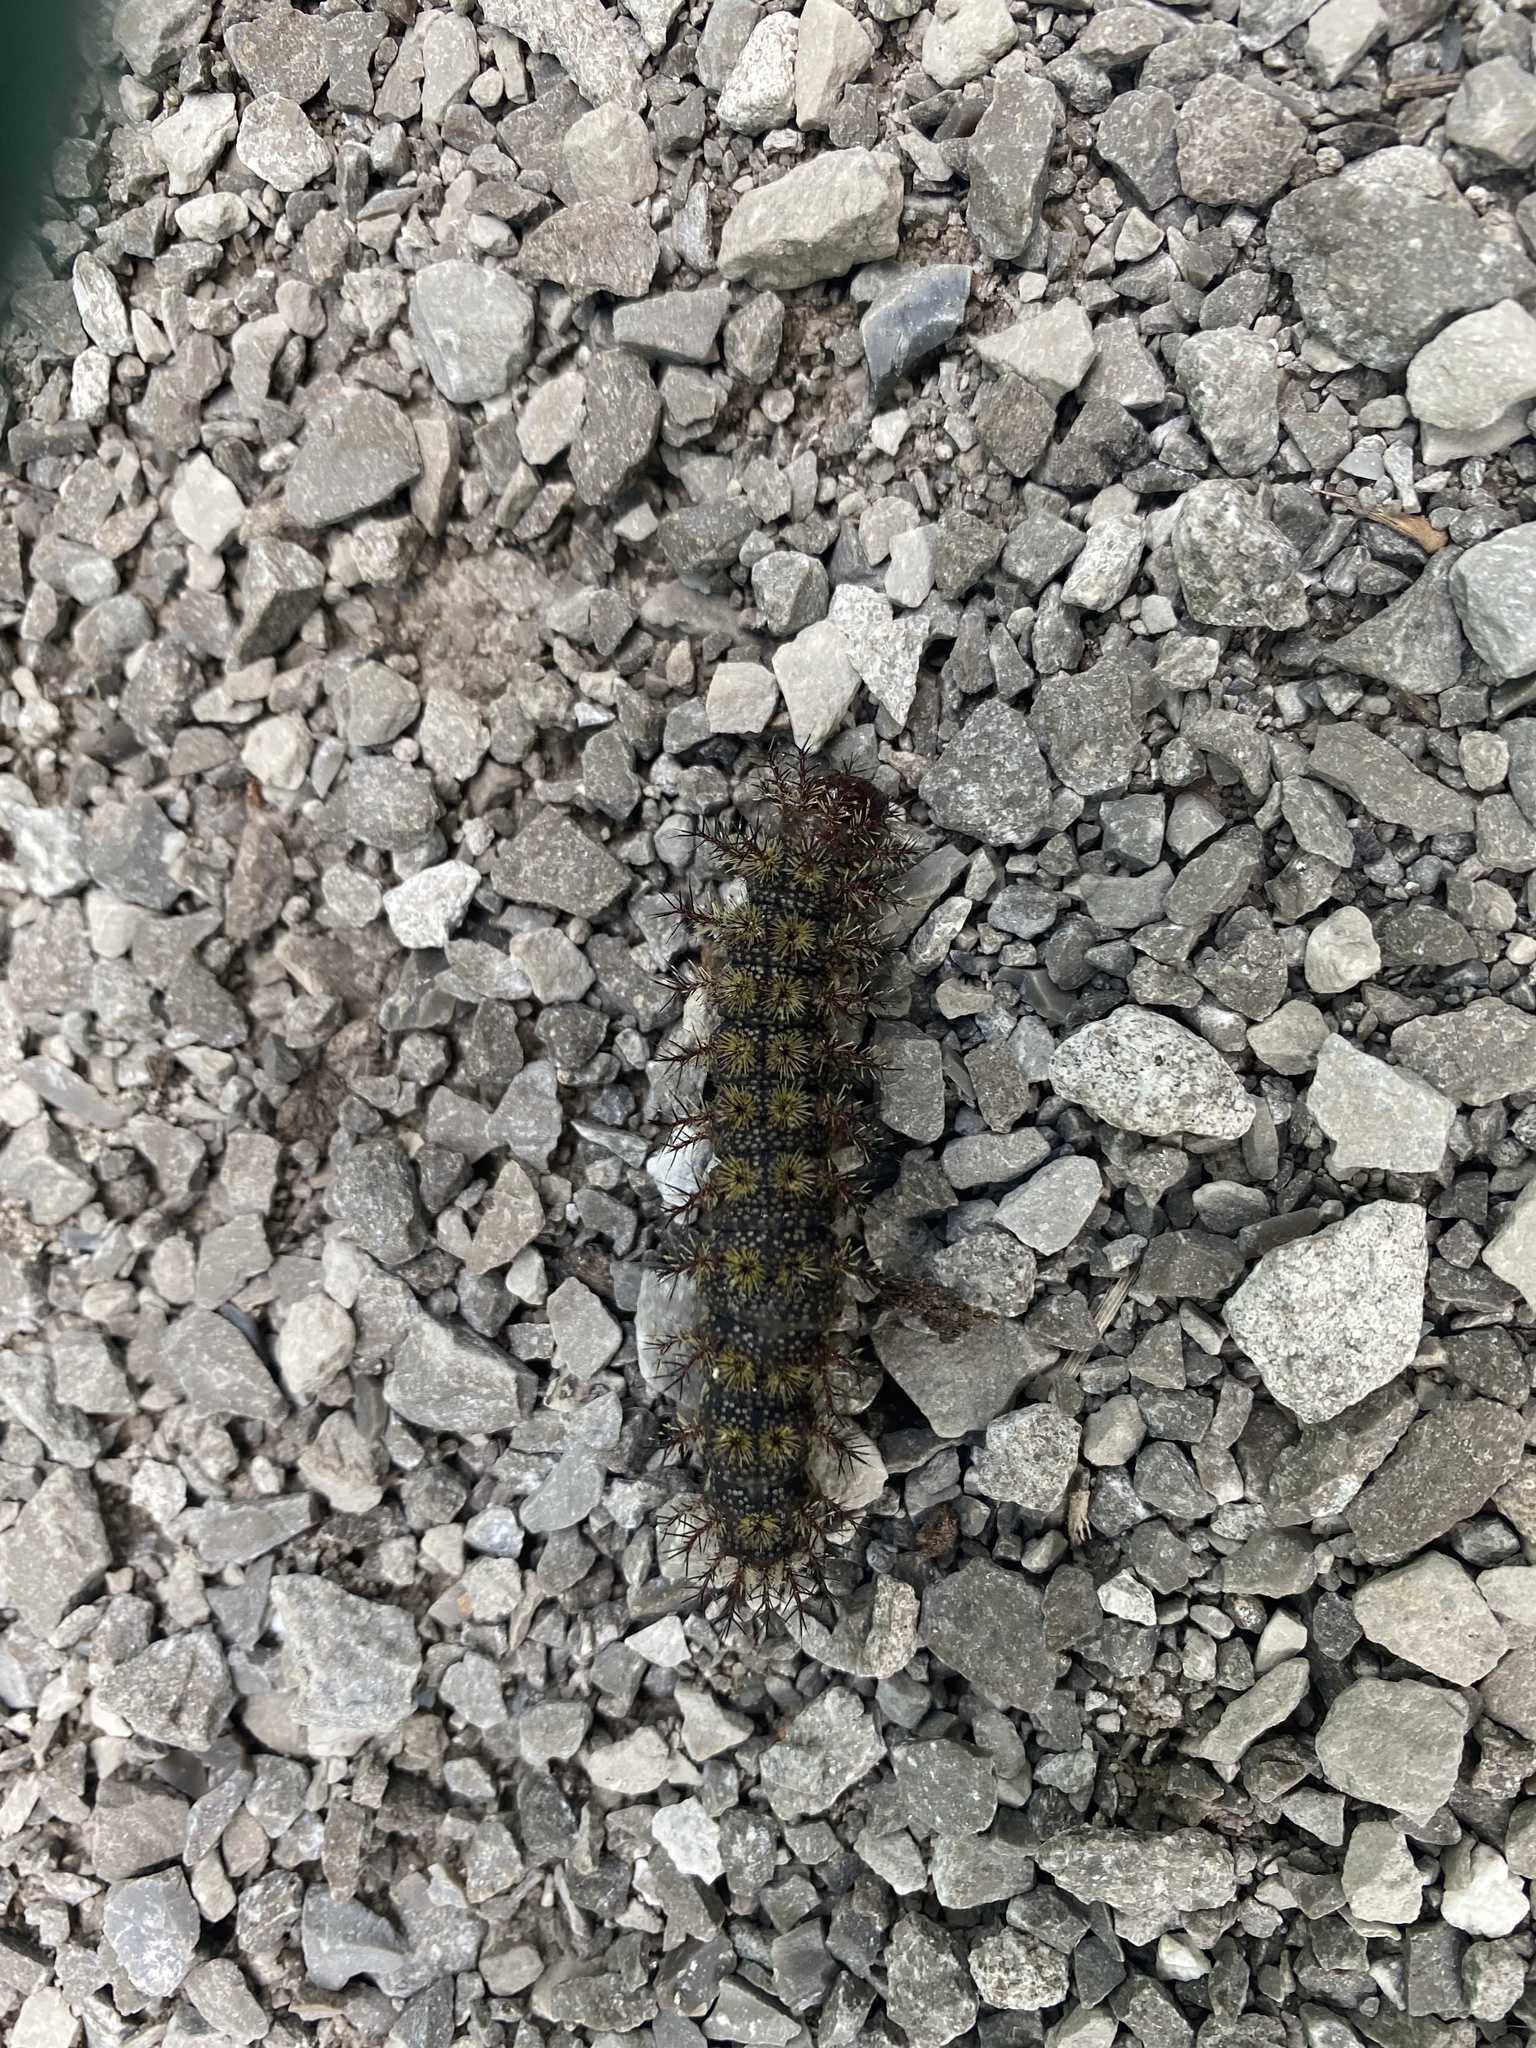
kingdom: Animalia
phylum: Arthropoda
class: Insecta
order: Lepidoptera
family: Saturniidae
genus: Hemileuca
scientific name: Hemileuca maia
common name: Eastern buckmoth
